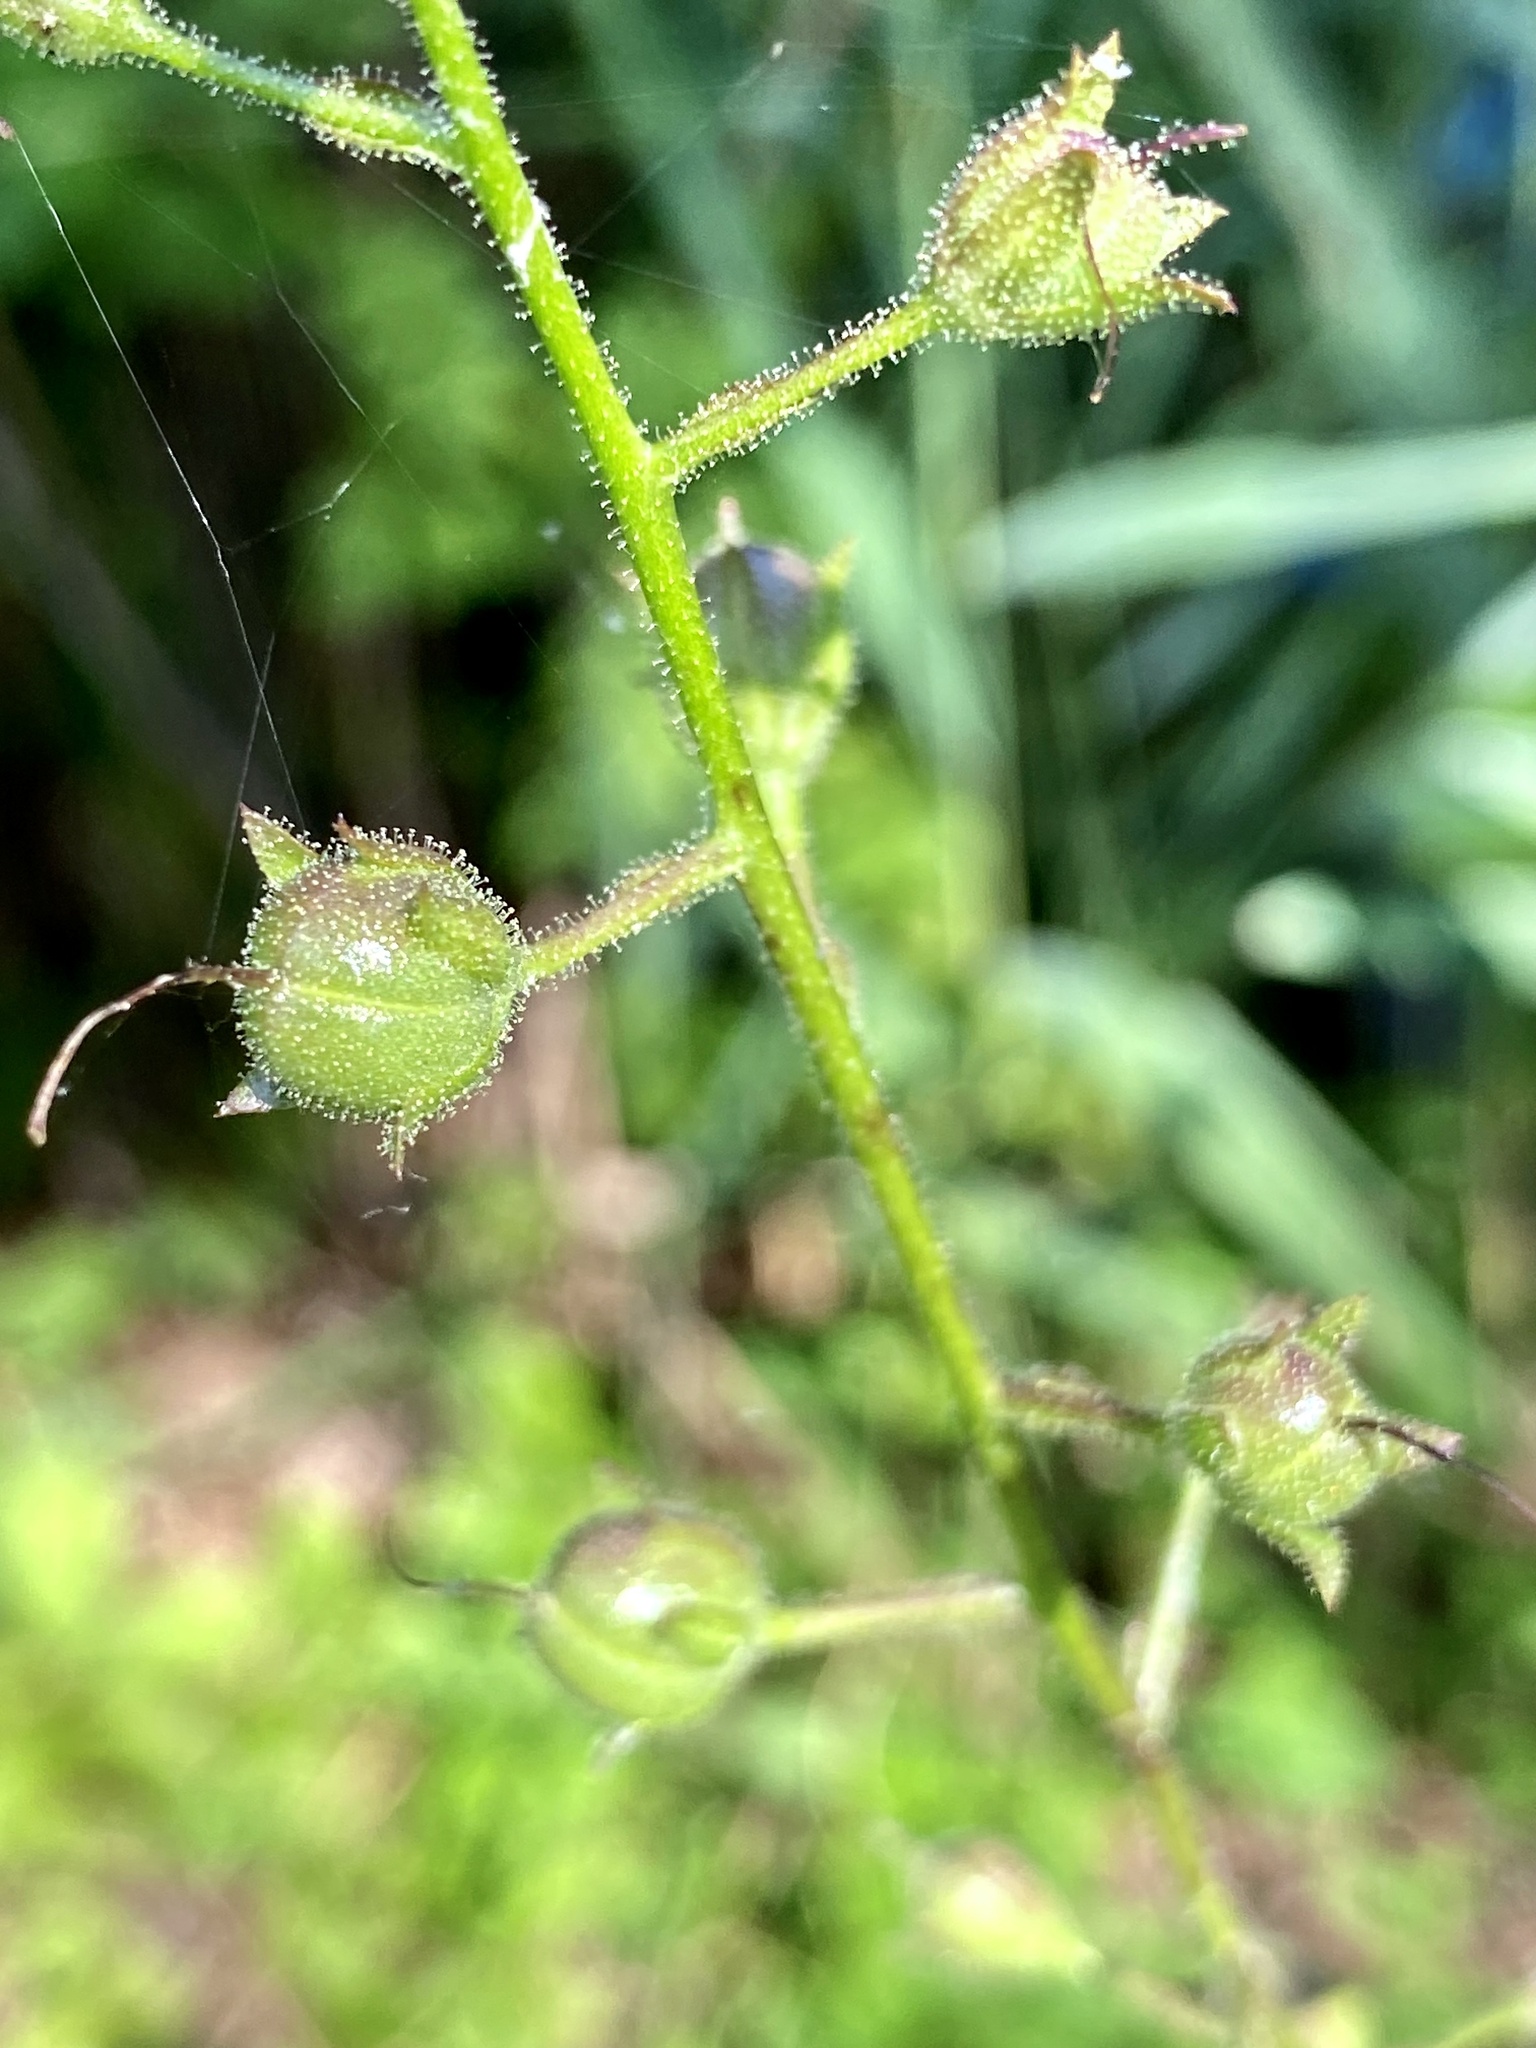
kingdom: Plantae
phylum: Tracheophyta
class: Magnoliopsida
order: Lamiales
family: Scrophulariaceae
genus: Verbascum
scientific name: Verbascum blattaria
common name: Moth mullein
